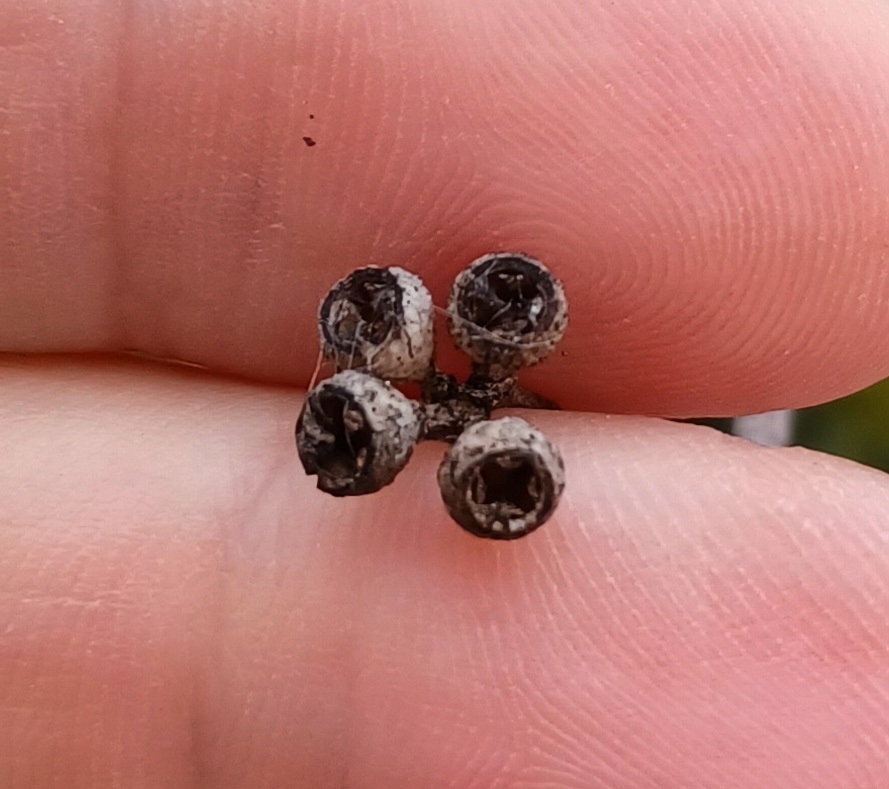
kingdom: Plantae
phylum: Tracheophyta
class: Magnoliopsida
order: Myrtales
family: Myrtaceae
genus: Eucalyptus
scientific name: Eucalyptus largiflorens
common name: Black-box
